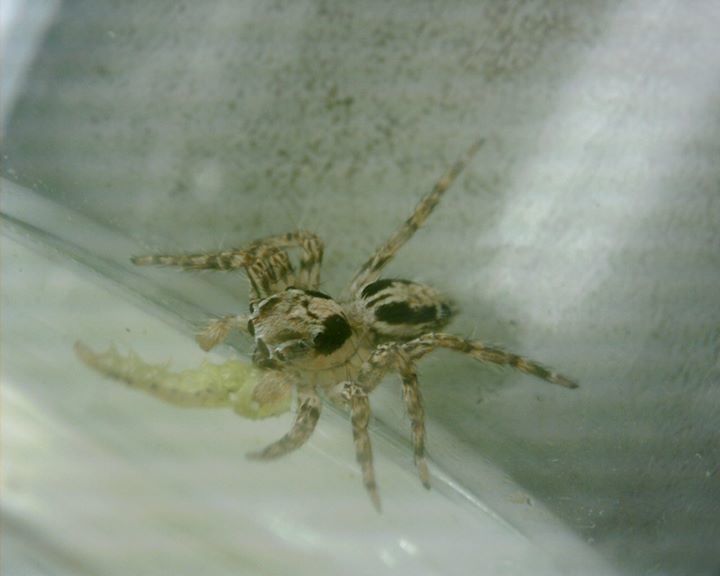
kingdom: Animalia
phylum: Arthropoda
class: Arachnida
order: Araneae
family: Salticidae
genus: Plexippus
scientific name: Plexippus petersi
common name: Jumping spider
